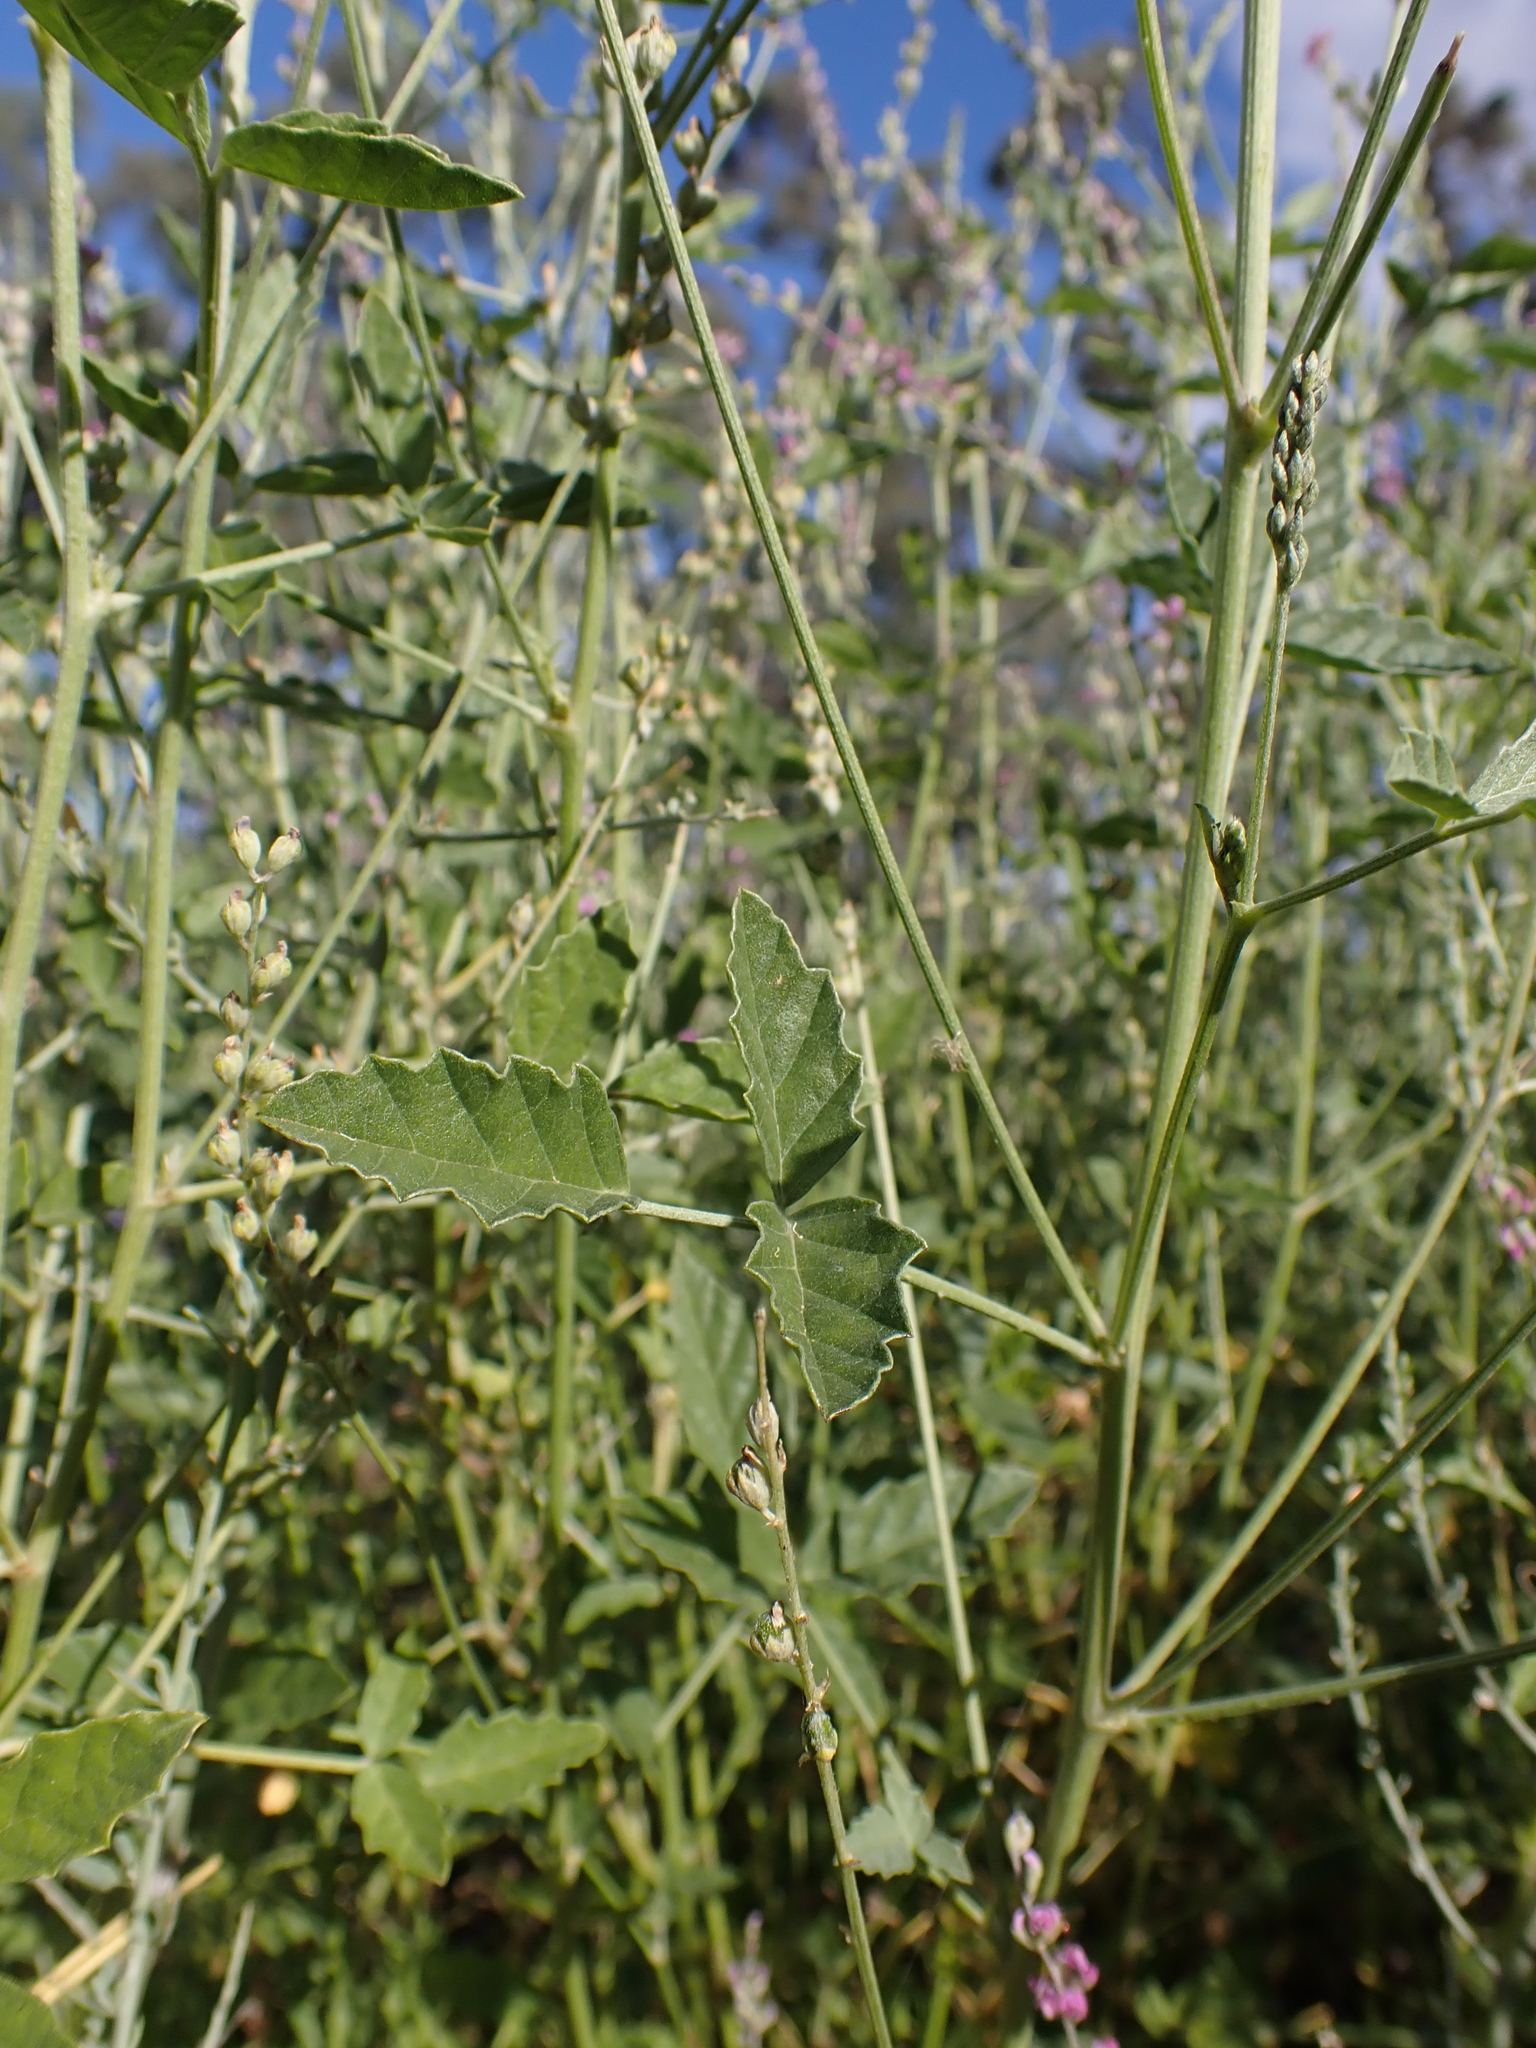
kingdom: Plantae
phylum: Tracheophyta
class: Magnoliopsida
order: Fabales
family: Fabaceae
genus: Cullen
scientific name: Cullen cinereum
